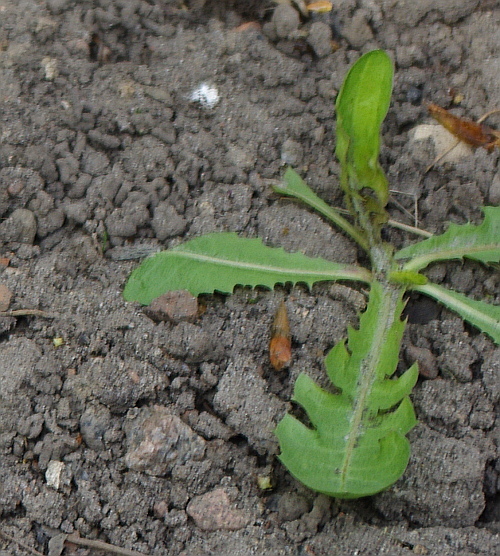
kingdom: Plantae
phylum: Tracheophyta
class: Magnoliopsida
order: Asterales
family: Asteraceae
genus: Taraxacum
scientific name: Taraxacum officinale
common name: Common dandelion
